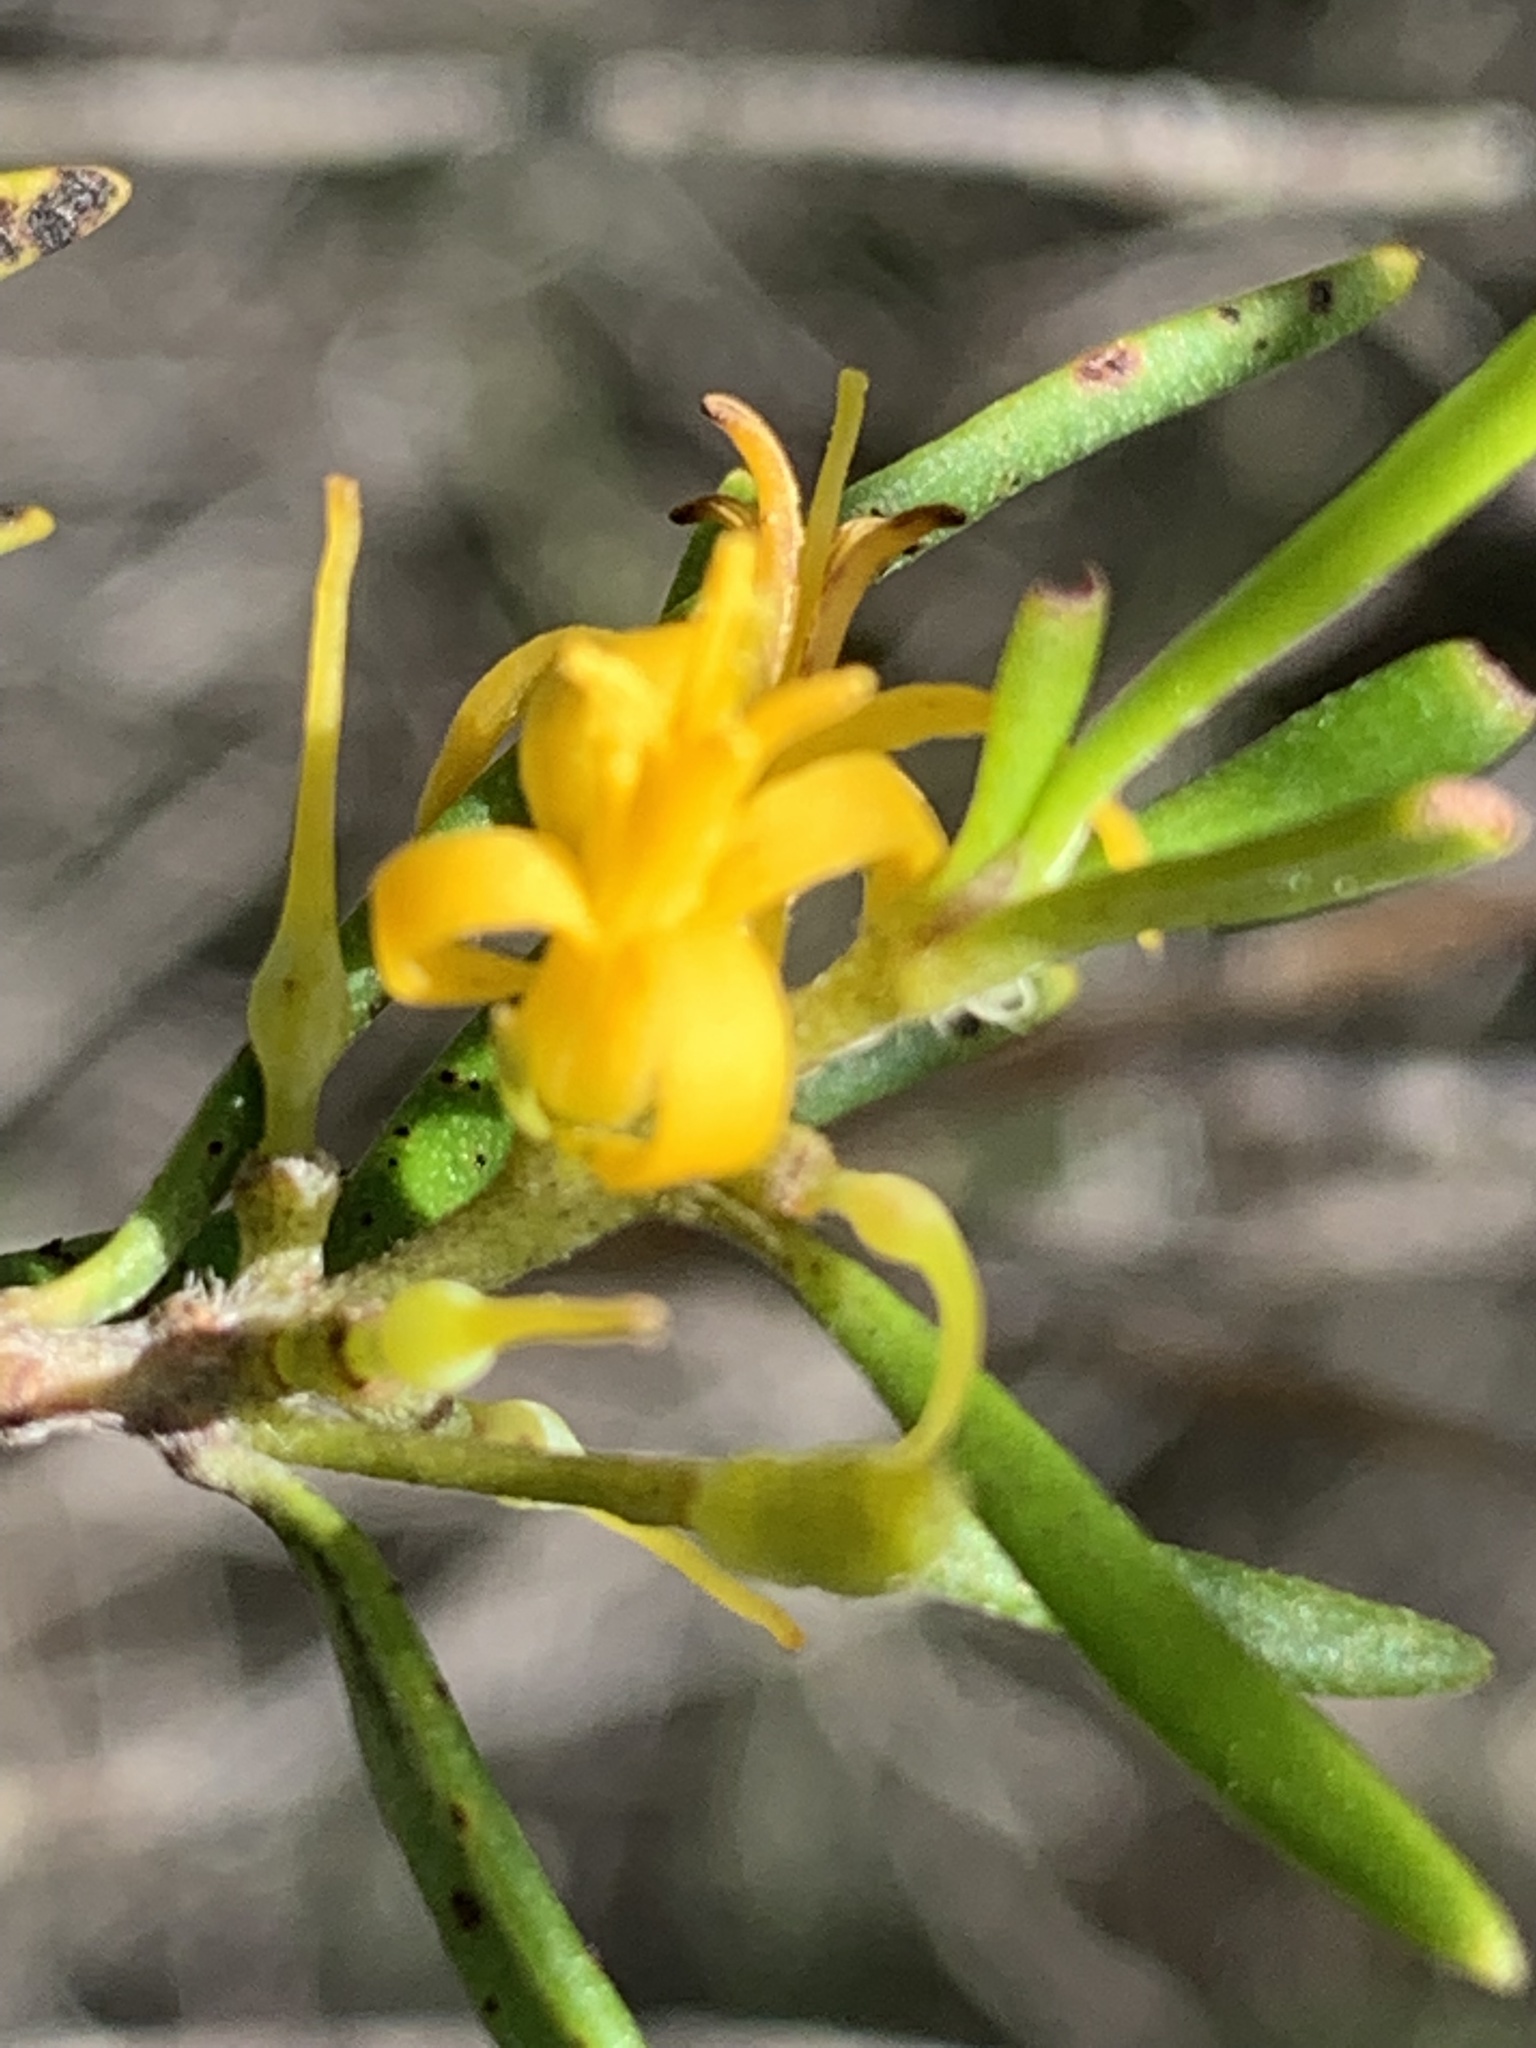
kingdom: Plantae
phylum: Tracheophyta
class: Magnoliopsida
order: Proteales
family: Proteaceae
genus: Persoonia
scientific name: Persoonia mollis
